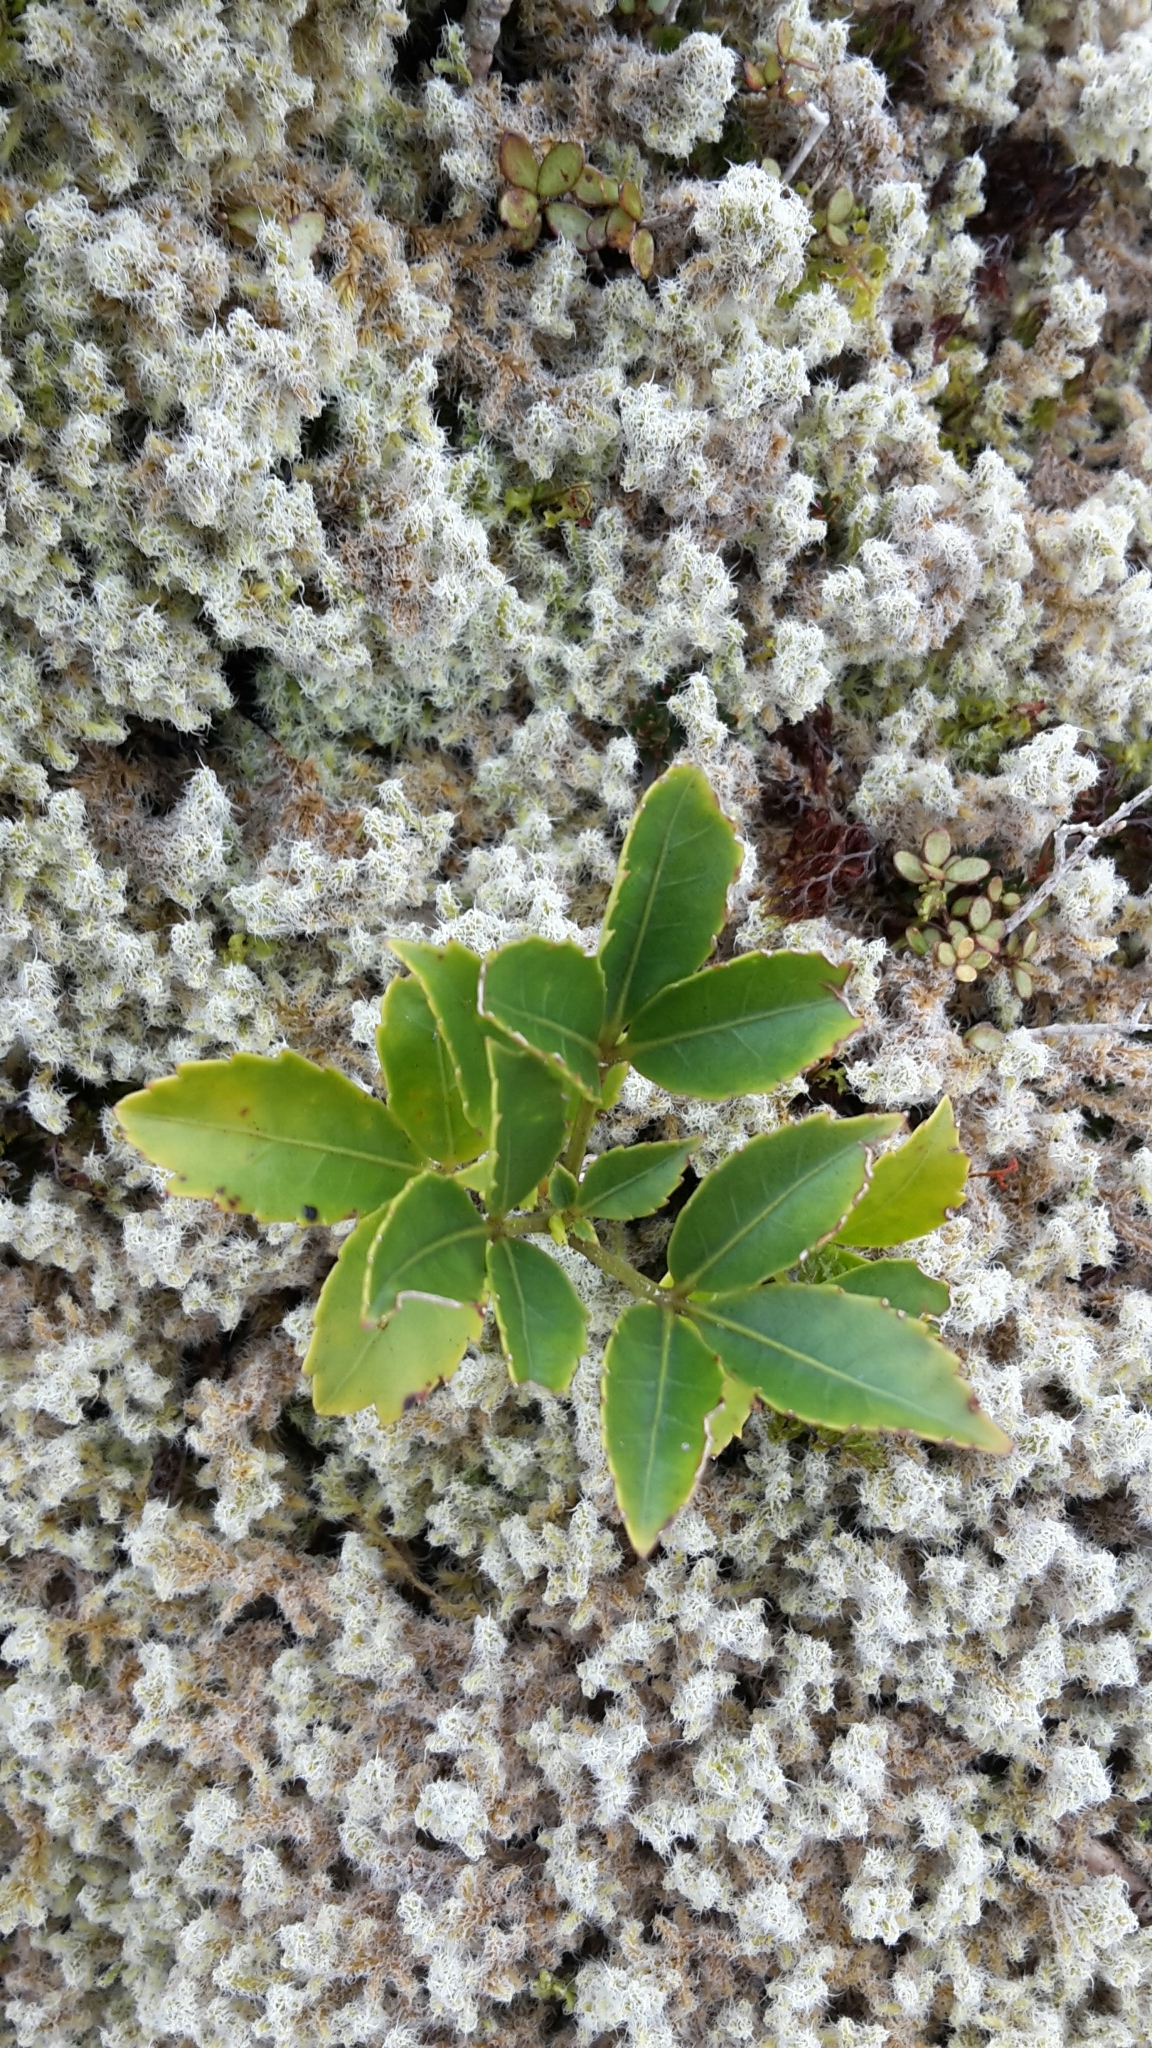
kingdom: Plantae
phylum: Tracheophyta
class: Magnoliopsida
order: Apiales
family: Araliaceae
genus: Raukaua
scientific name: Raukaua simplex
